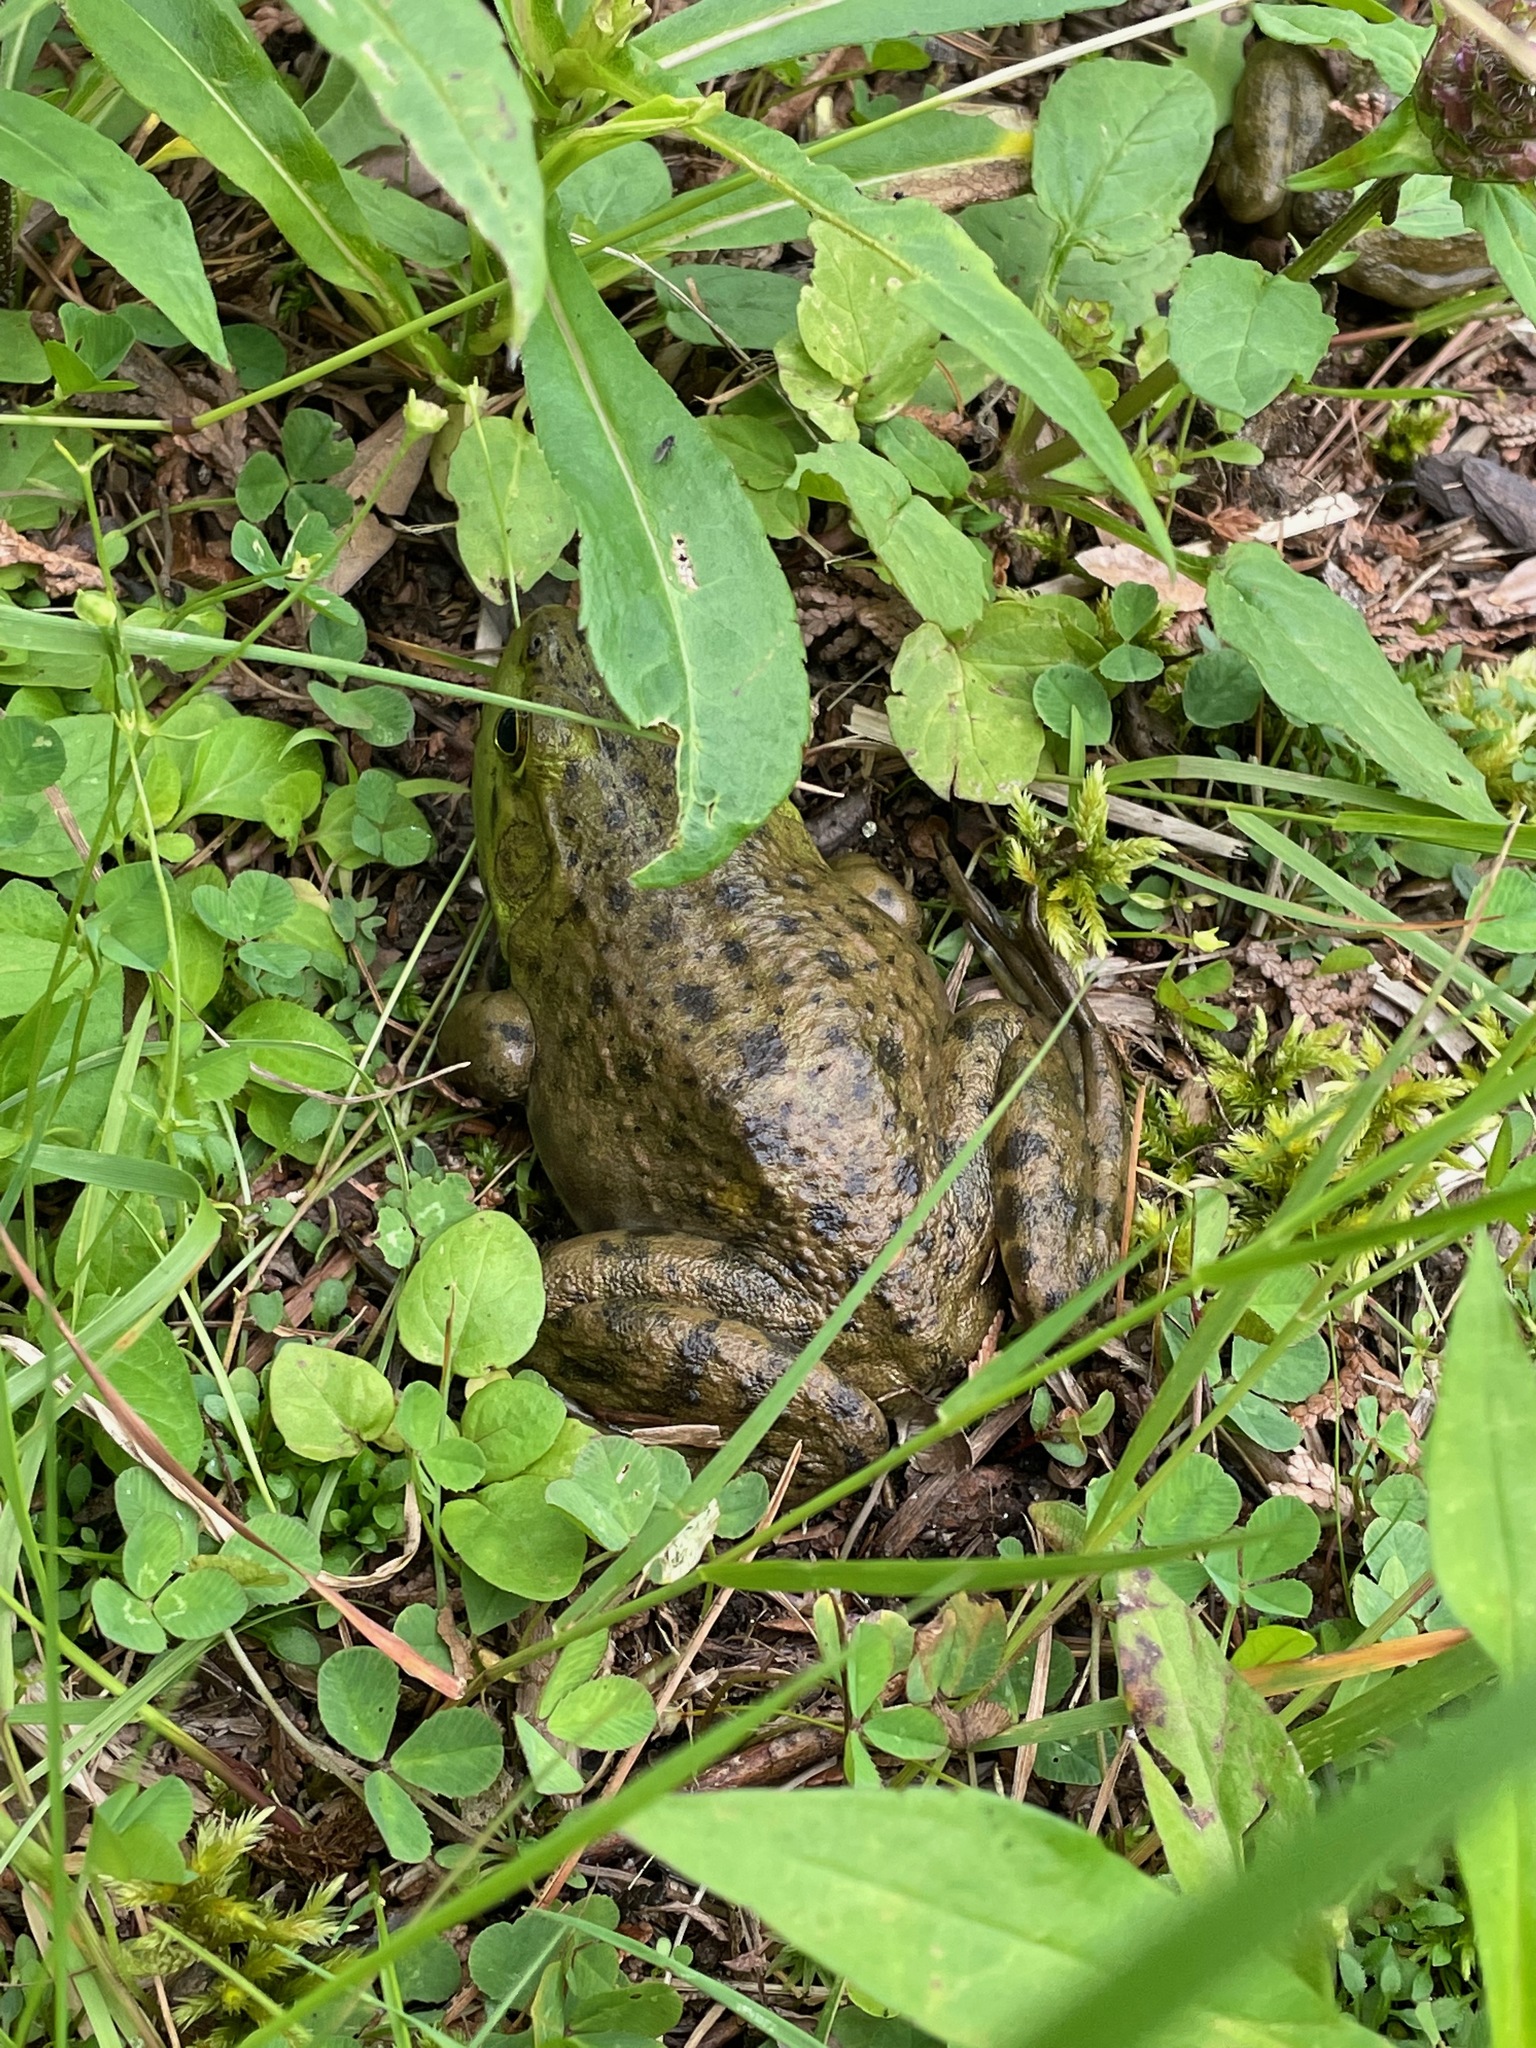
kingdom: Animalia
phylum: Chordata
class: Amphibia
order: Anura
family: Ranidae
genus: Lithobates
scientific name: Lithobates catesbeianus
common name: American bullfrog
